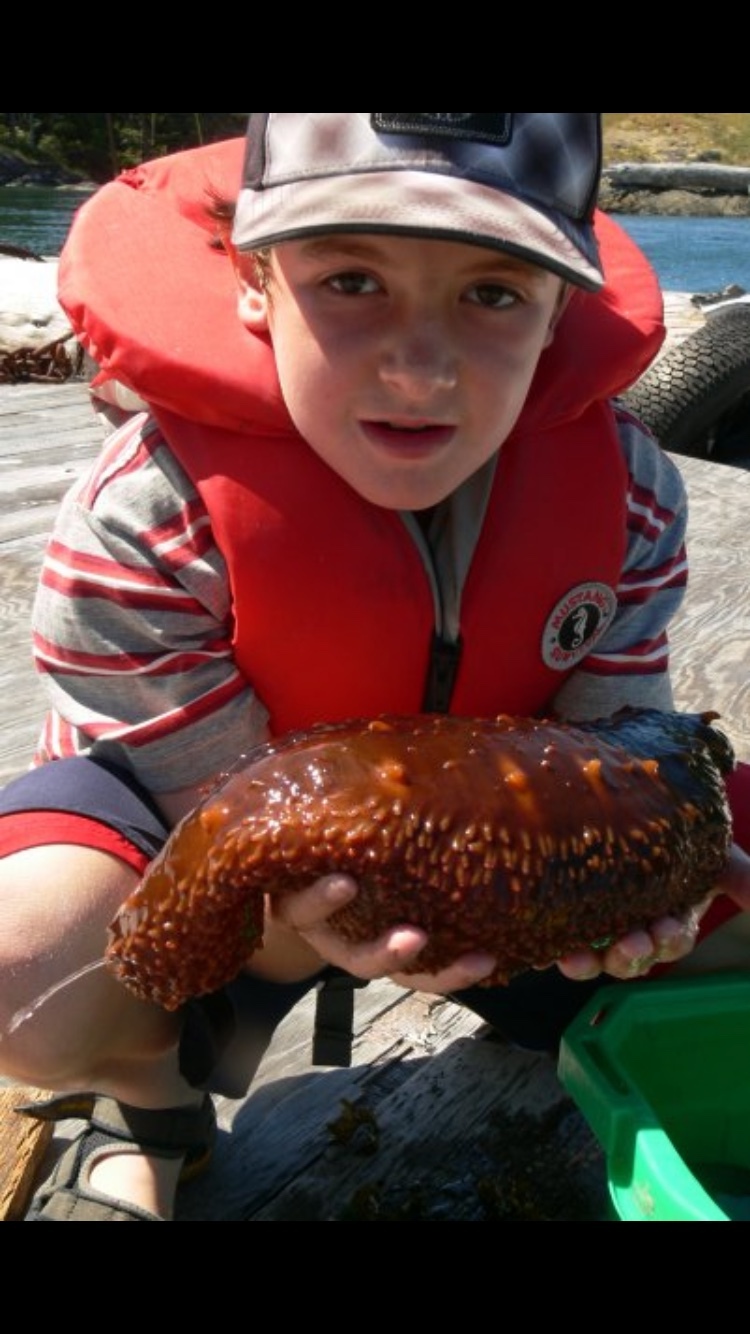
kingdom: Animalia
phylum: Echinodermata
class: Holothuroidea
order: Synallactida
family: Stichopodidae
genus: Apostichopus
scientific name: Apostichopus californicus
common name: California sea cucumber
